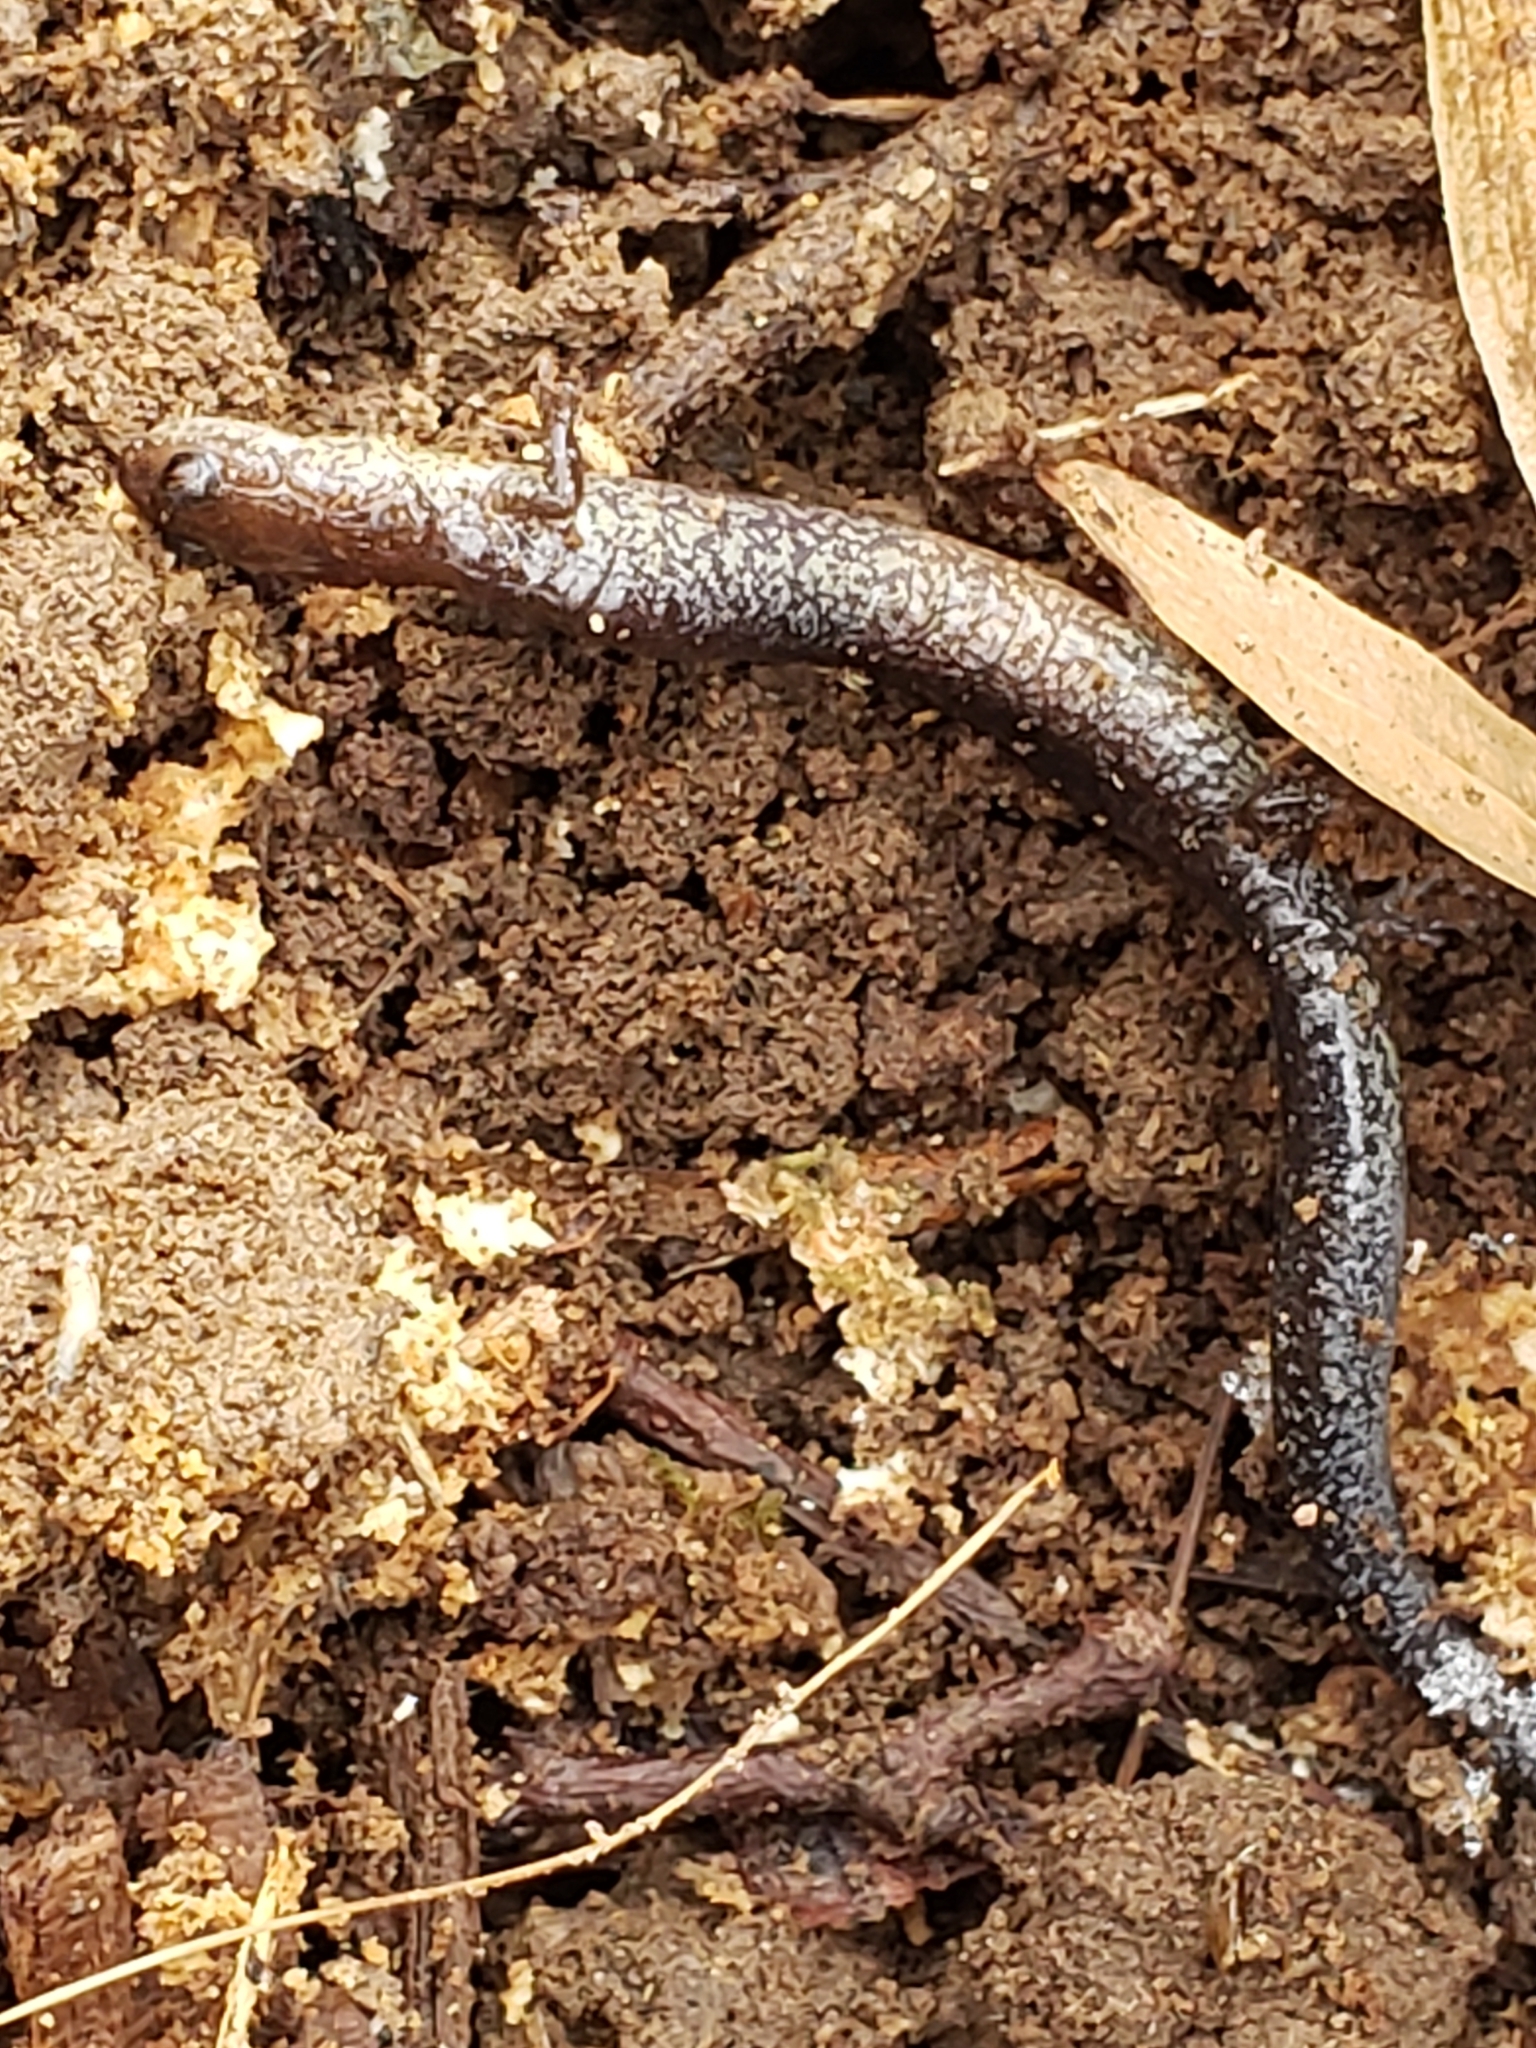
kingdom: Animalia
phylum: Chordata
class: Amphibia
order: Caudata
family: Plethodontidae
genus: Plethodon
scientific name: Plethodon cinereus
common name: Redback salamander
